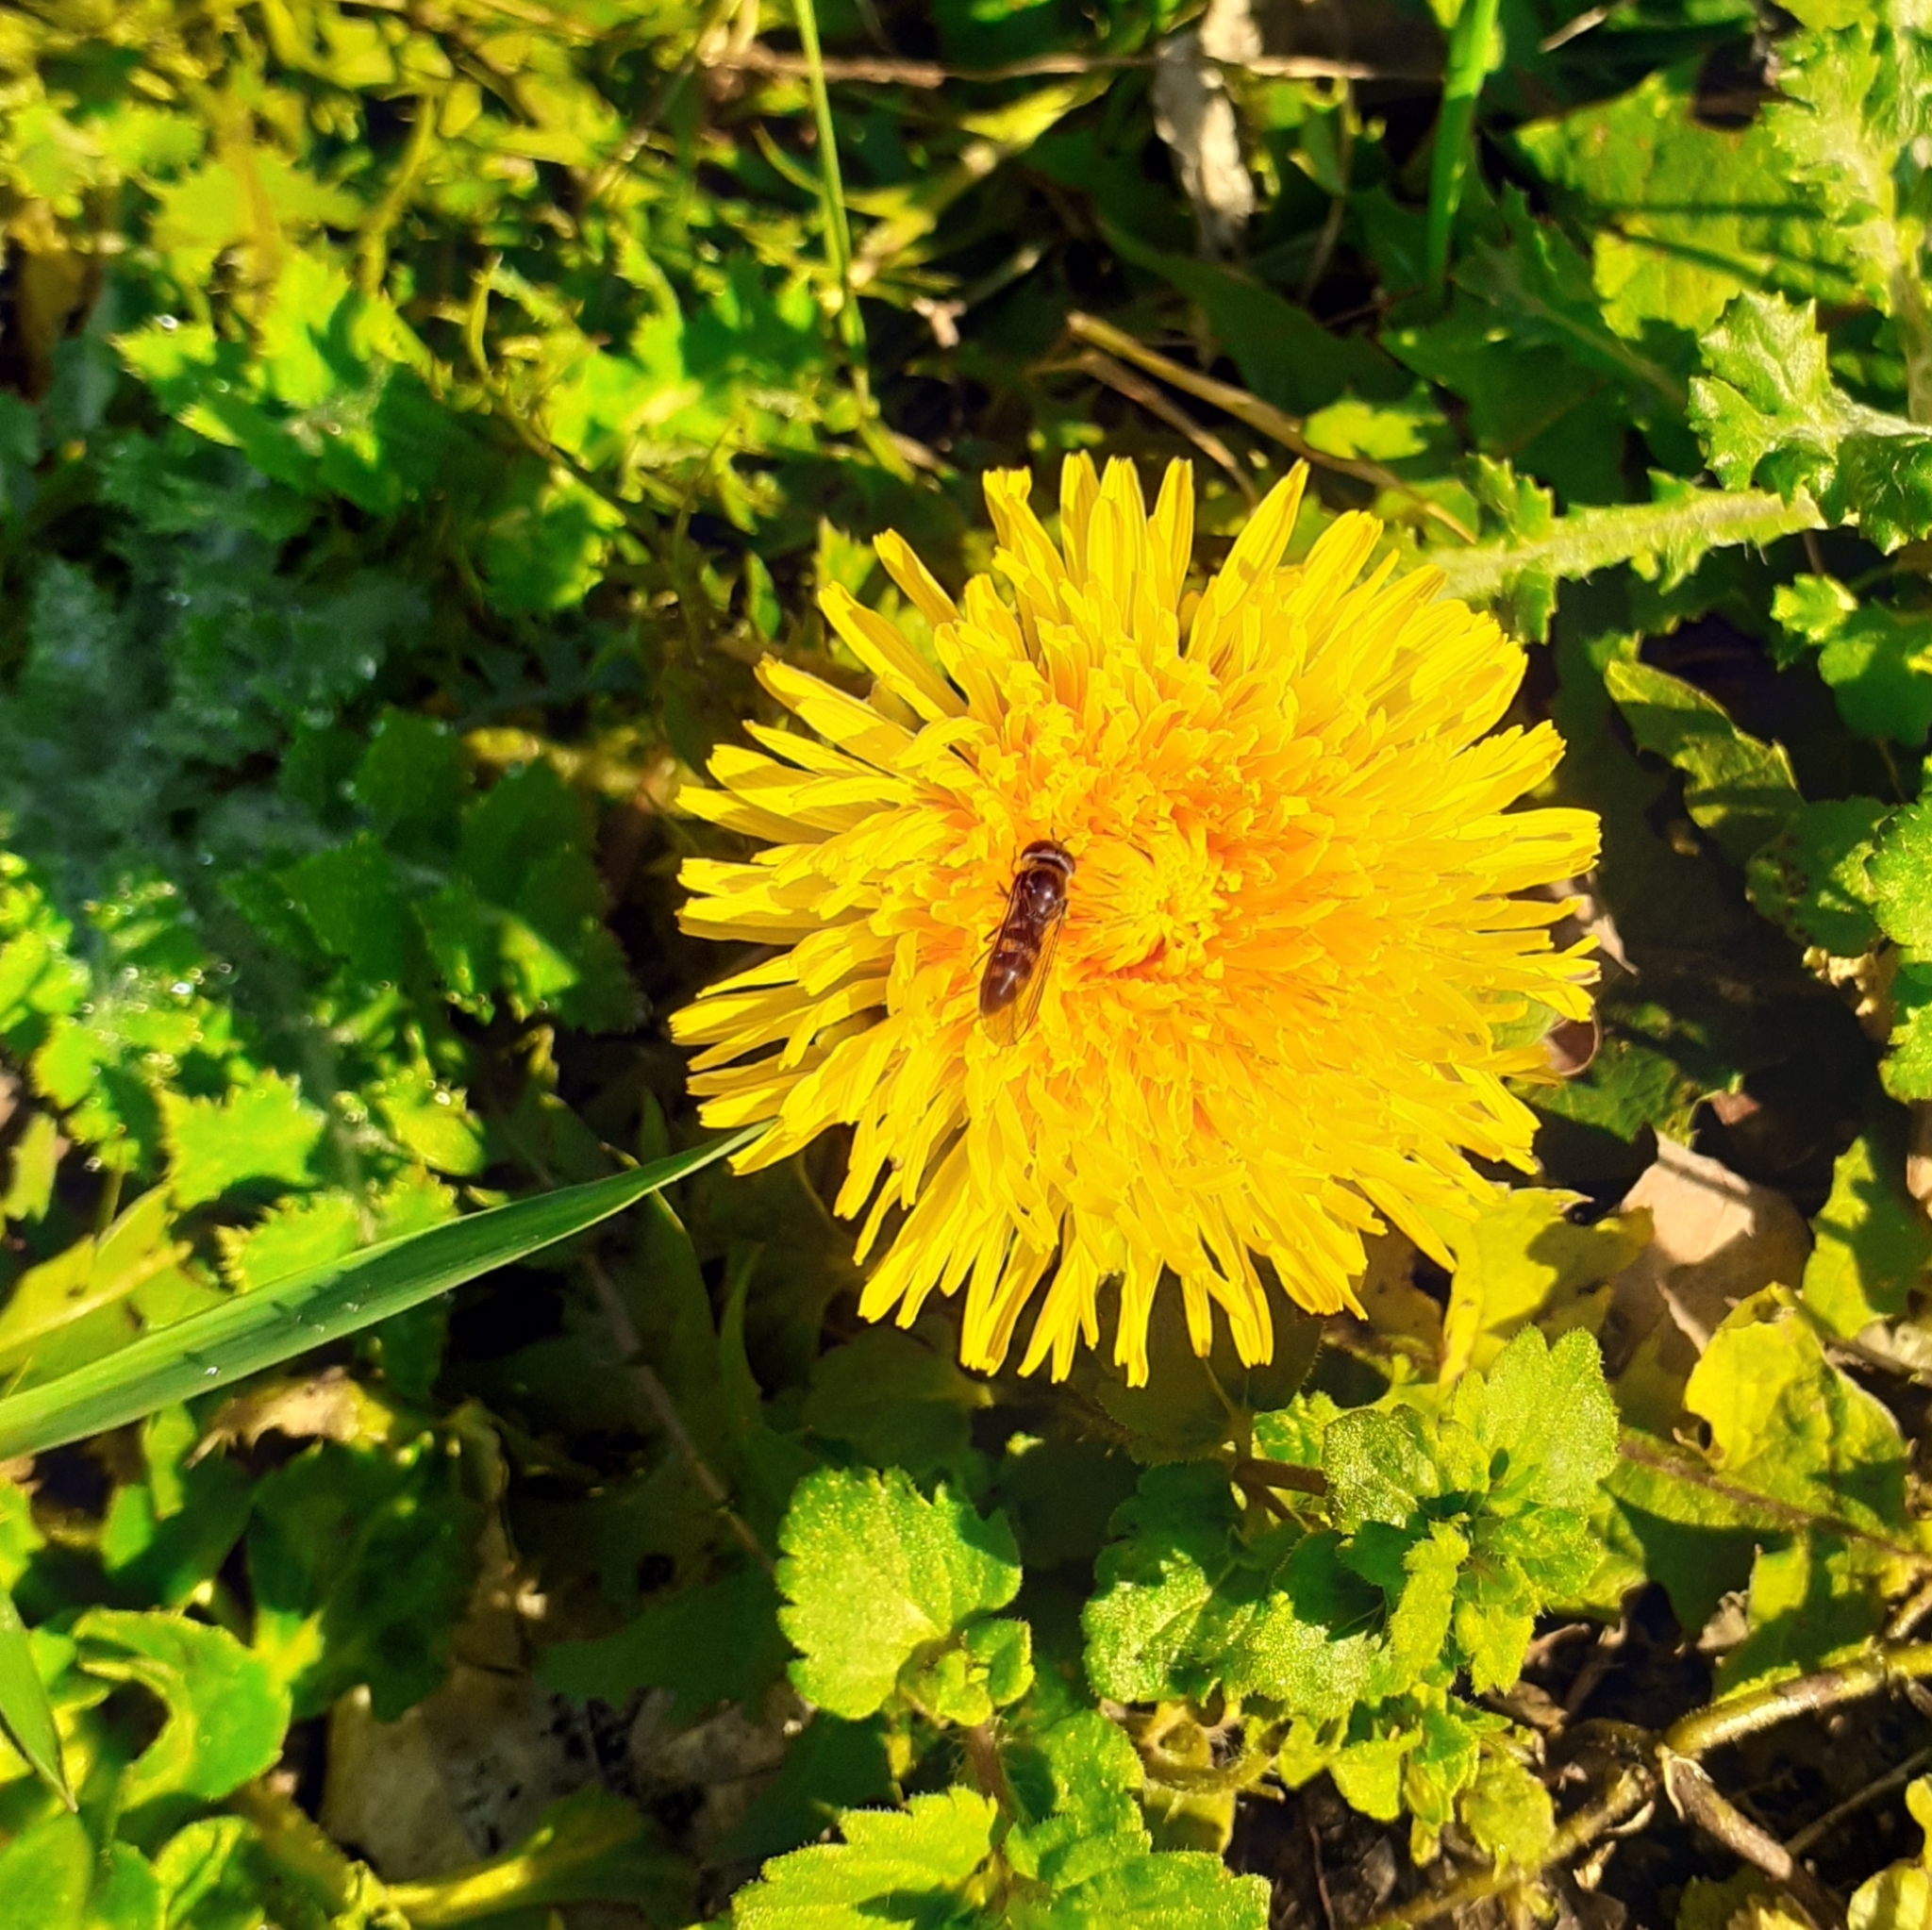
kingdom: Plantae
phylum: Tracheophyta
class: Magnoliopsida
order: Asterales
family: Asteraceae
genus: Taraxacum
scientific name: Taraxacum officinale
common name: Common dandelion
